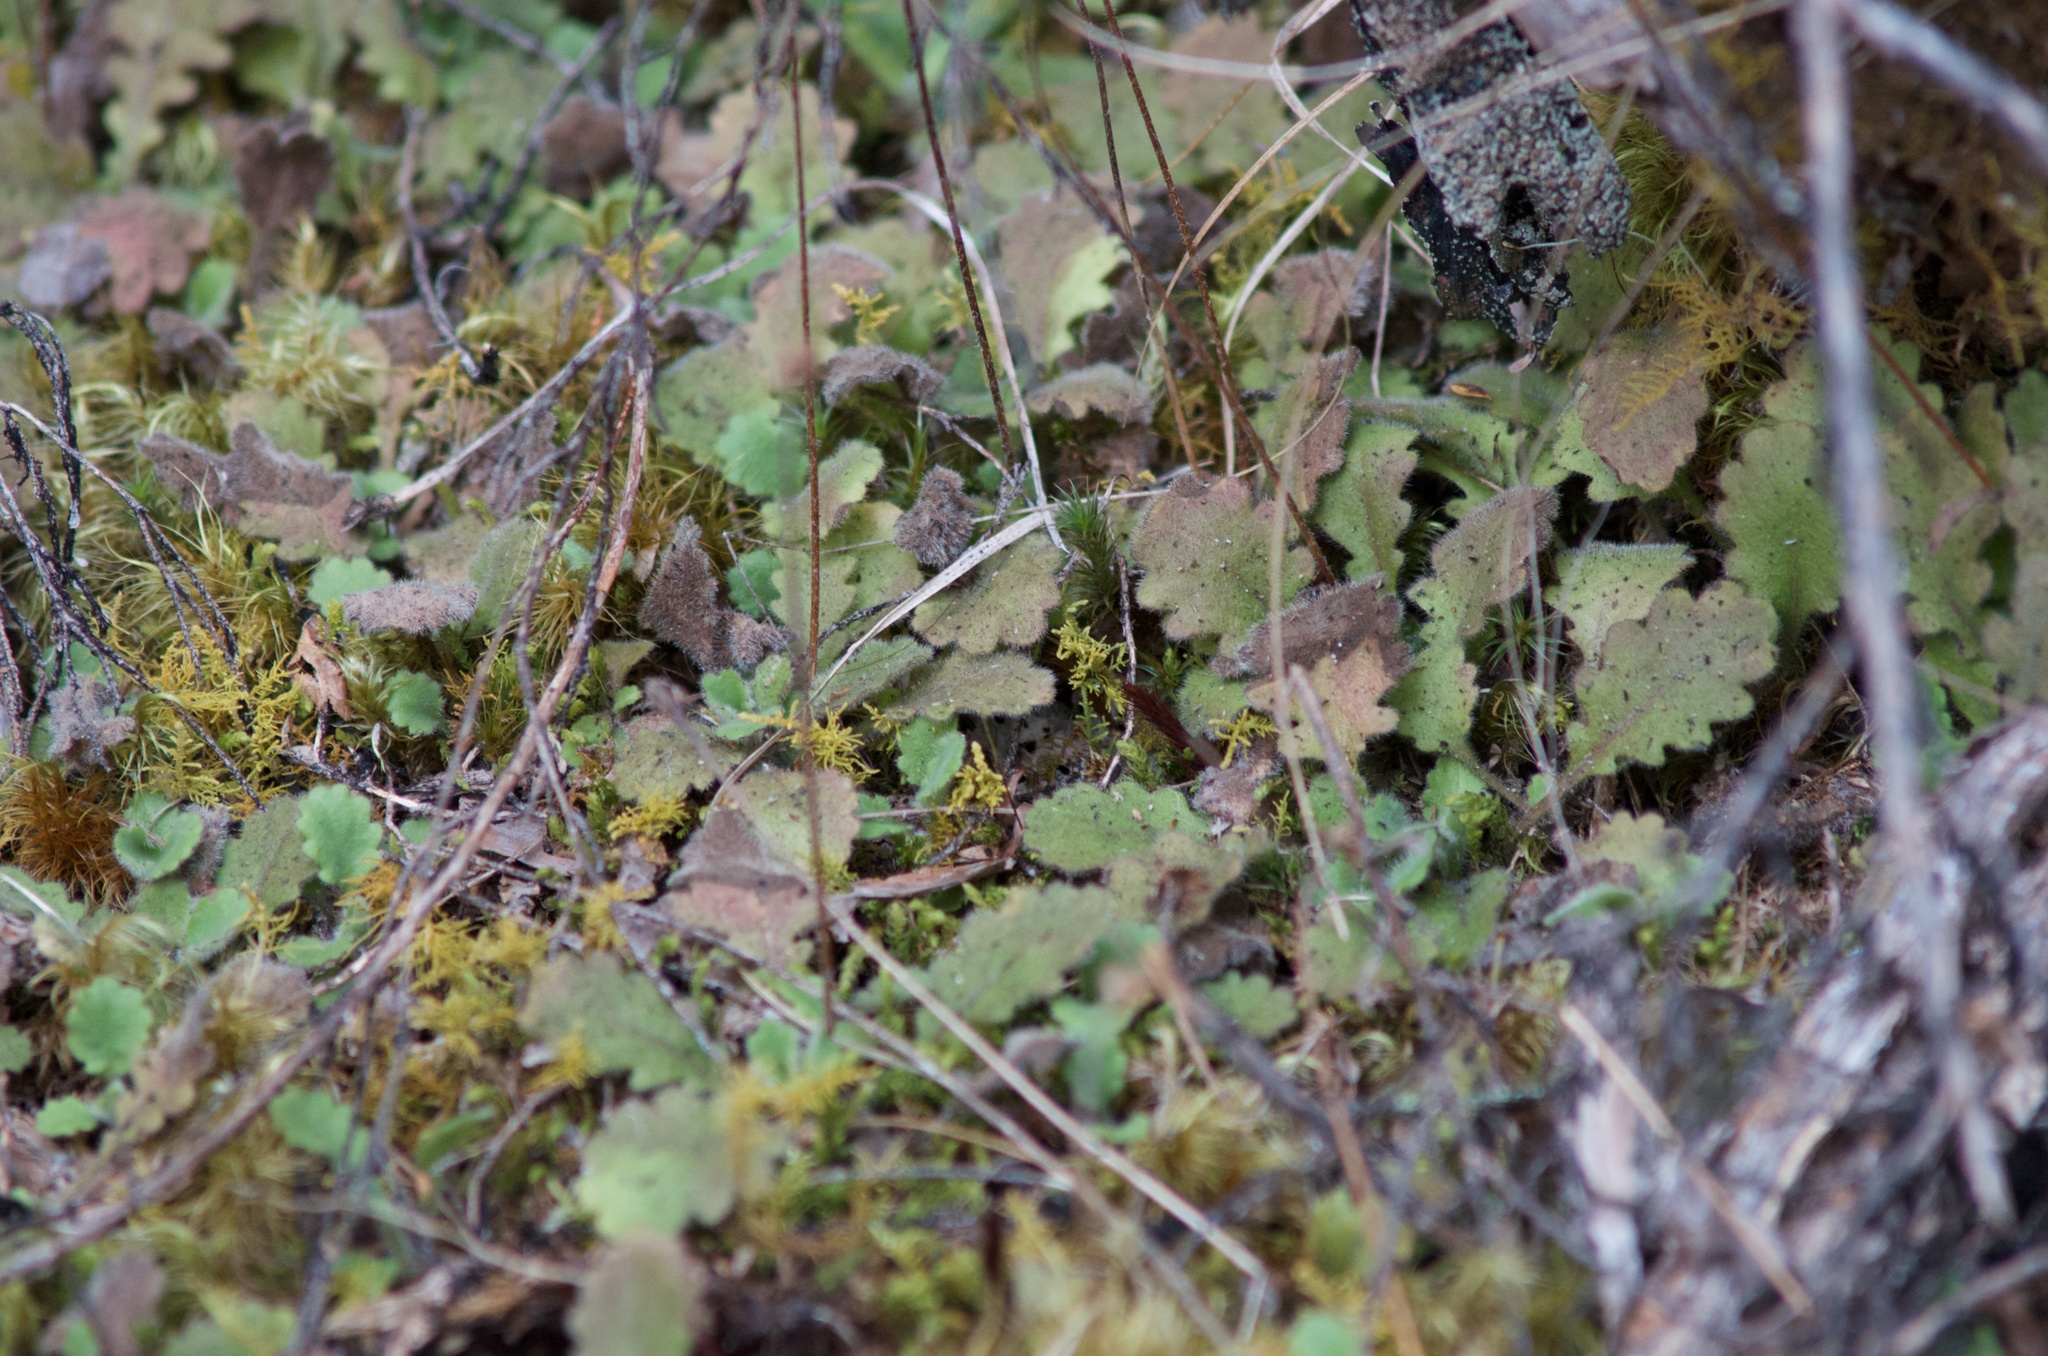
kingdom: Plantae
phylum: Tracheophyta
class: Magnoliopsida
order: Asterales
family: Asteraceae
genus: Lagenophora
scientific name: Lagenophora pinnatifida
